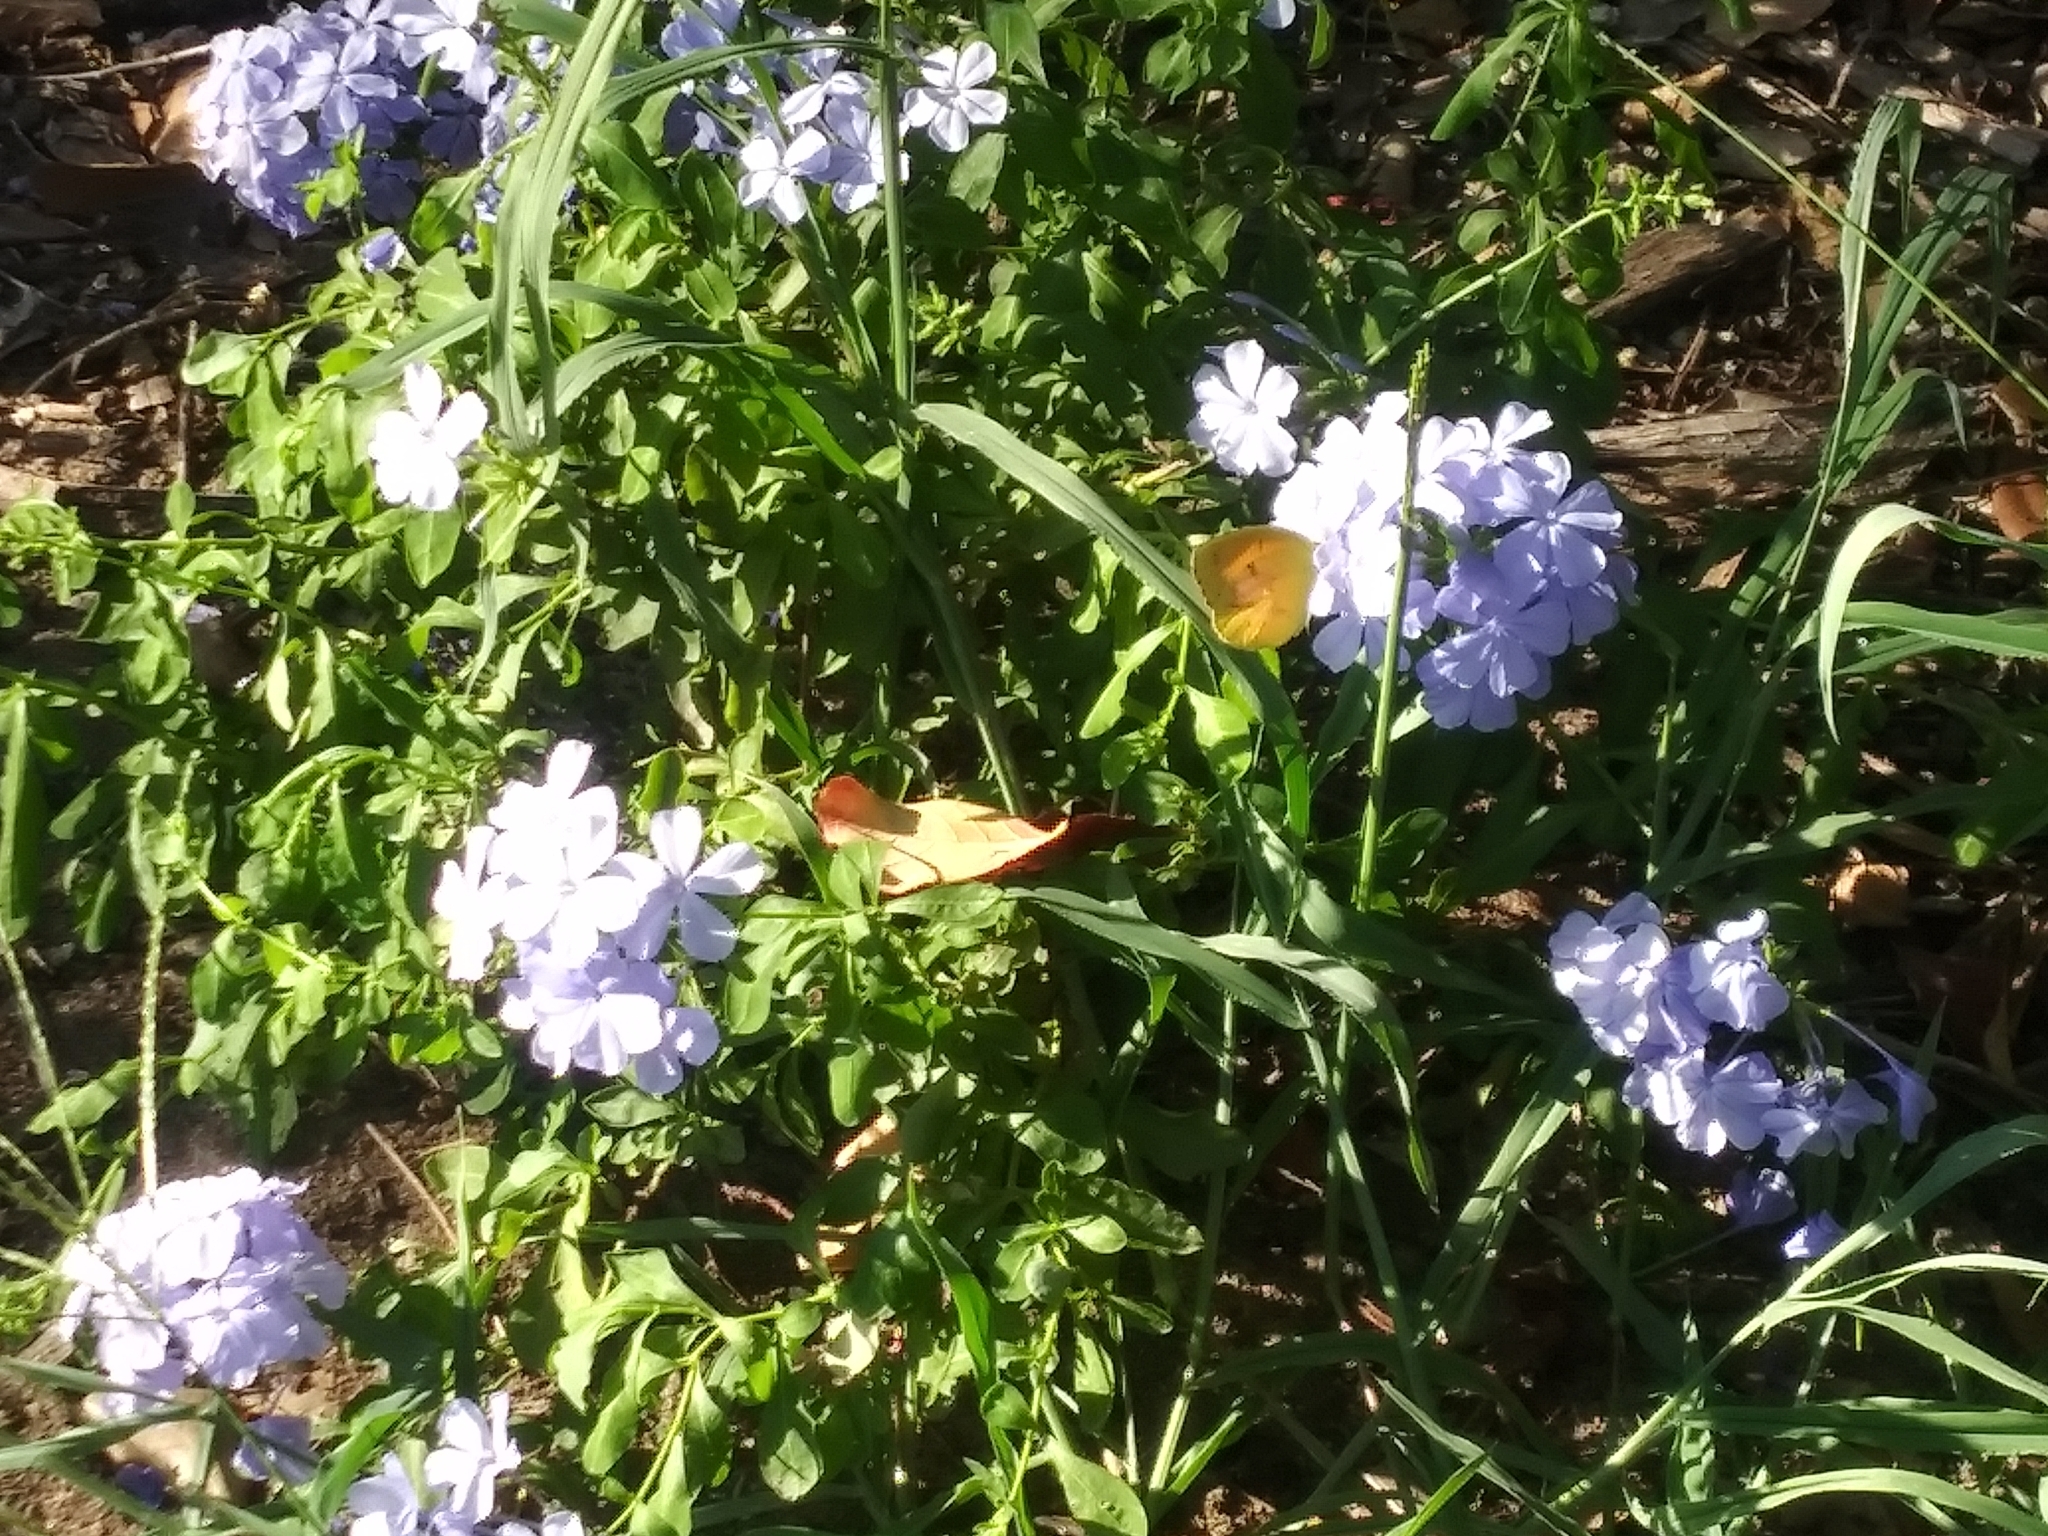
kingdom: Animalia
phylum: Arthropoda
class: Insecta
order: Lepidoptera
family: Pieridae
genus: Abaeis
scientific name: Abaeis nicippe
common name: Sleepy orange
